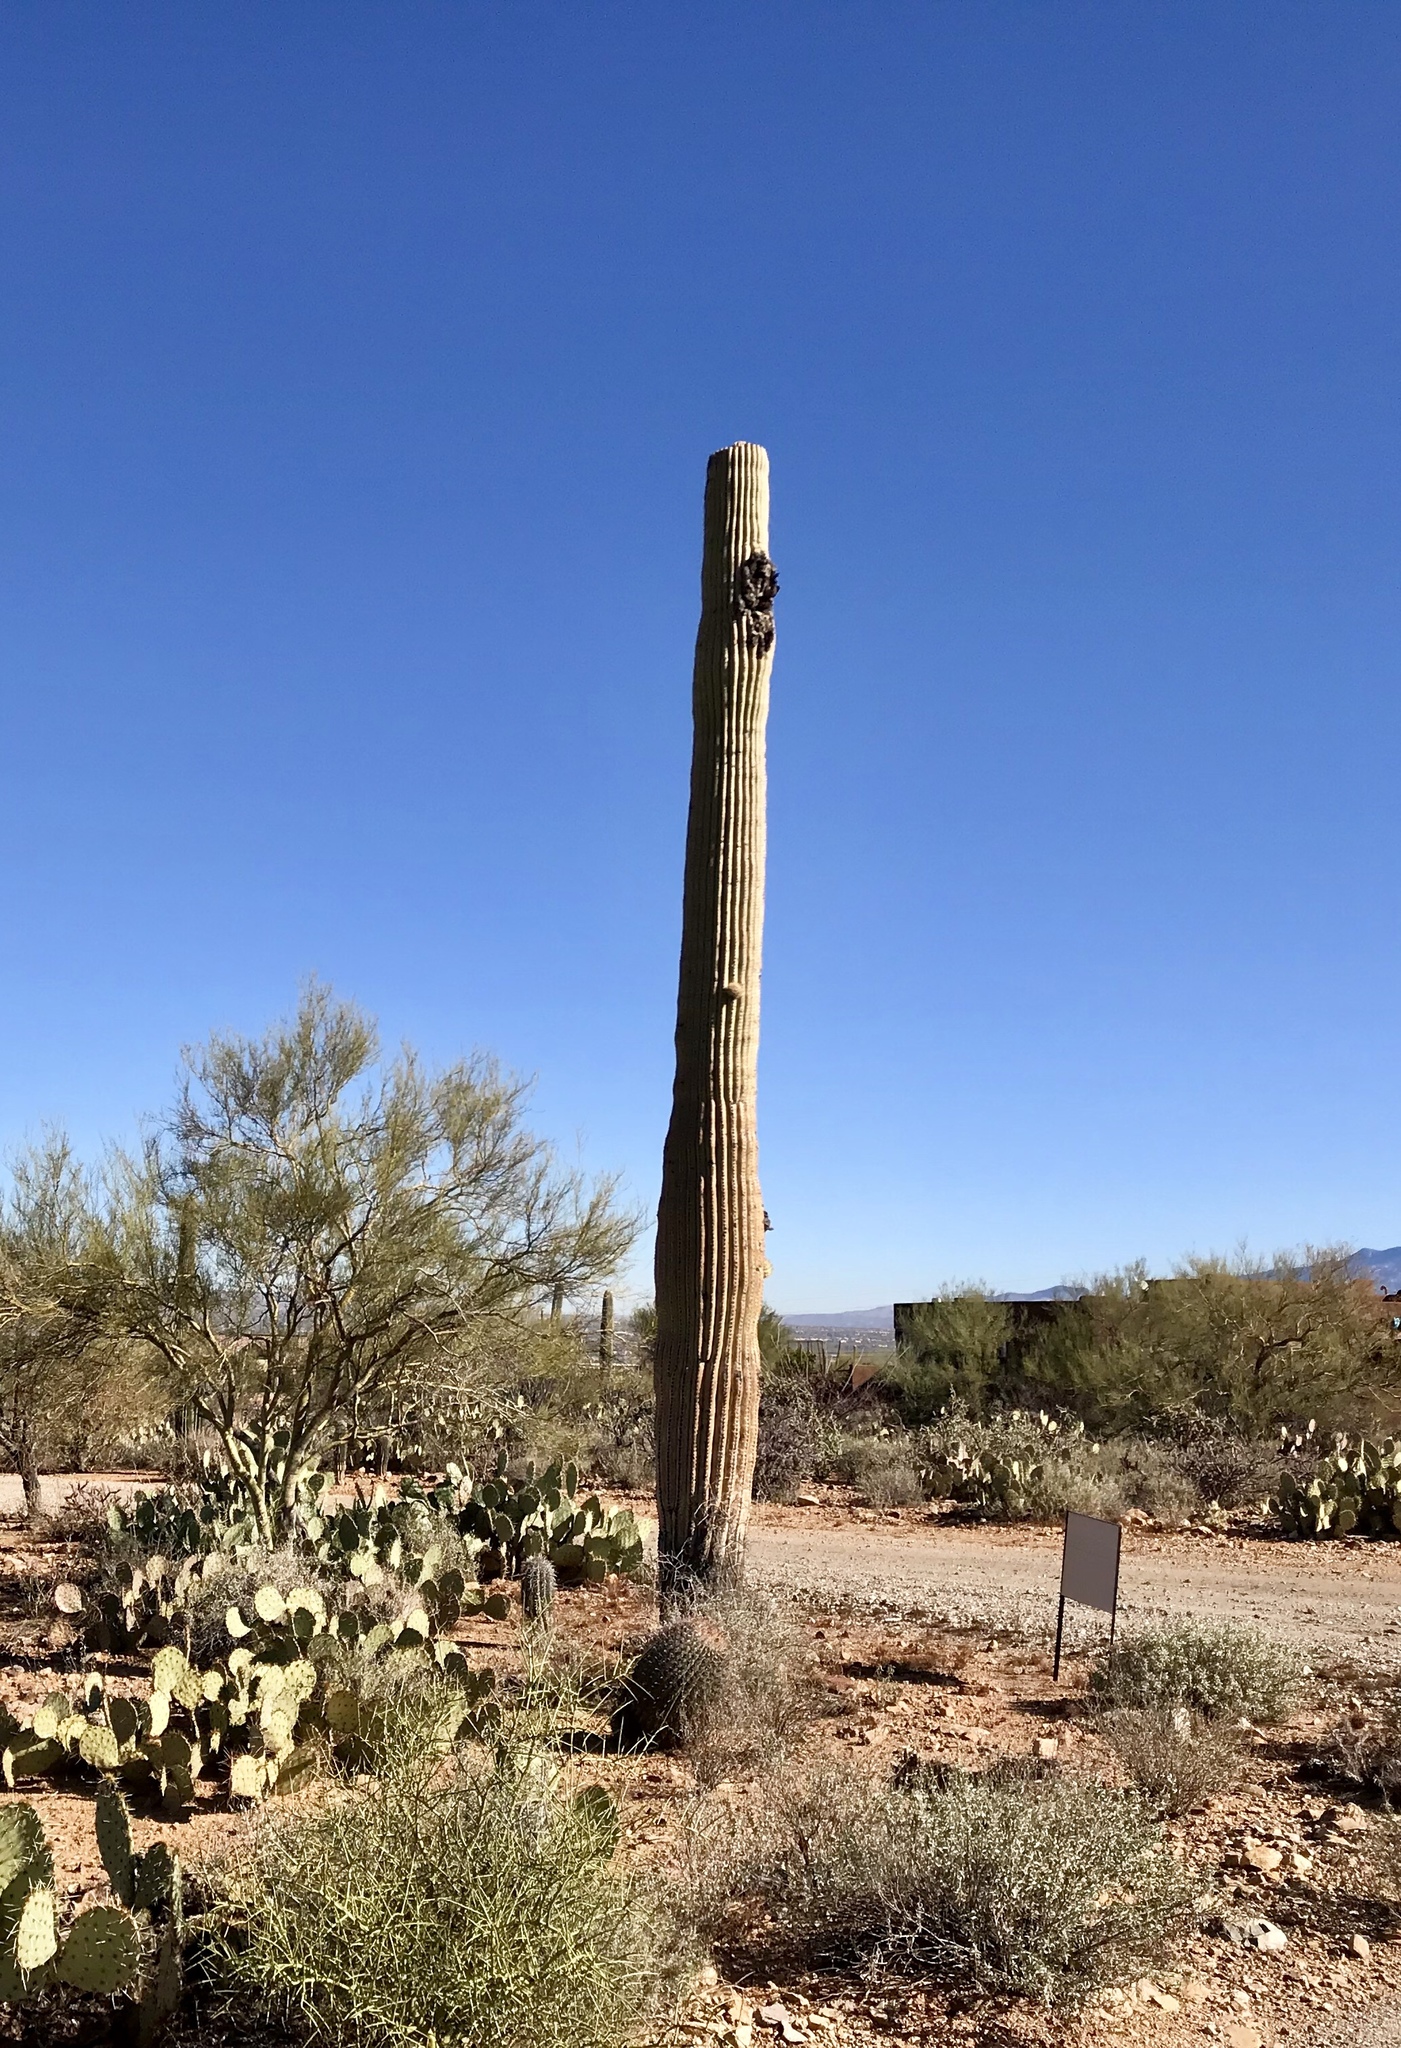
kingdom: Plantae
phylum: Tracheophyta
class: Magnoliopsida
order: Caryophyllales
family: Cactaceae
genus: Carnegiea
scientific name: Carnegiea gigantea
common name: Saguaro
